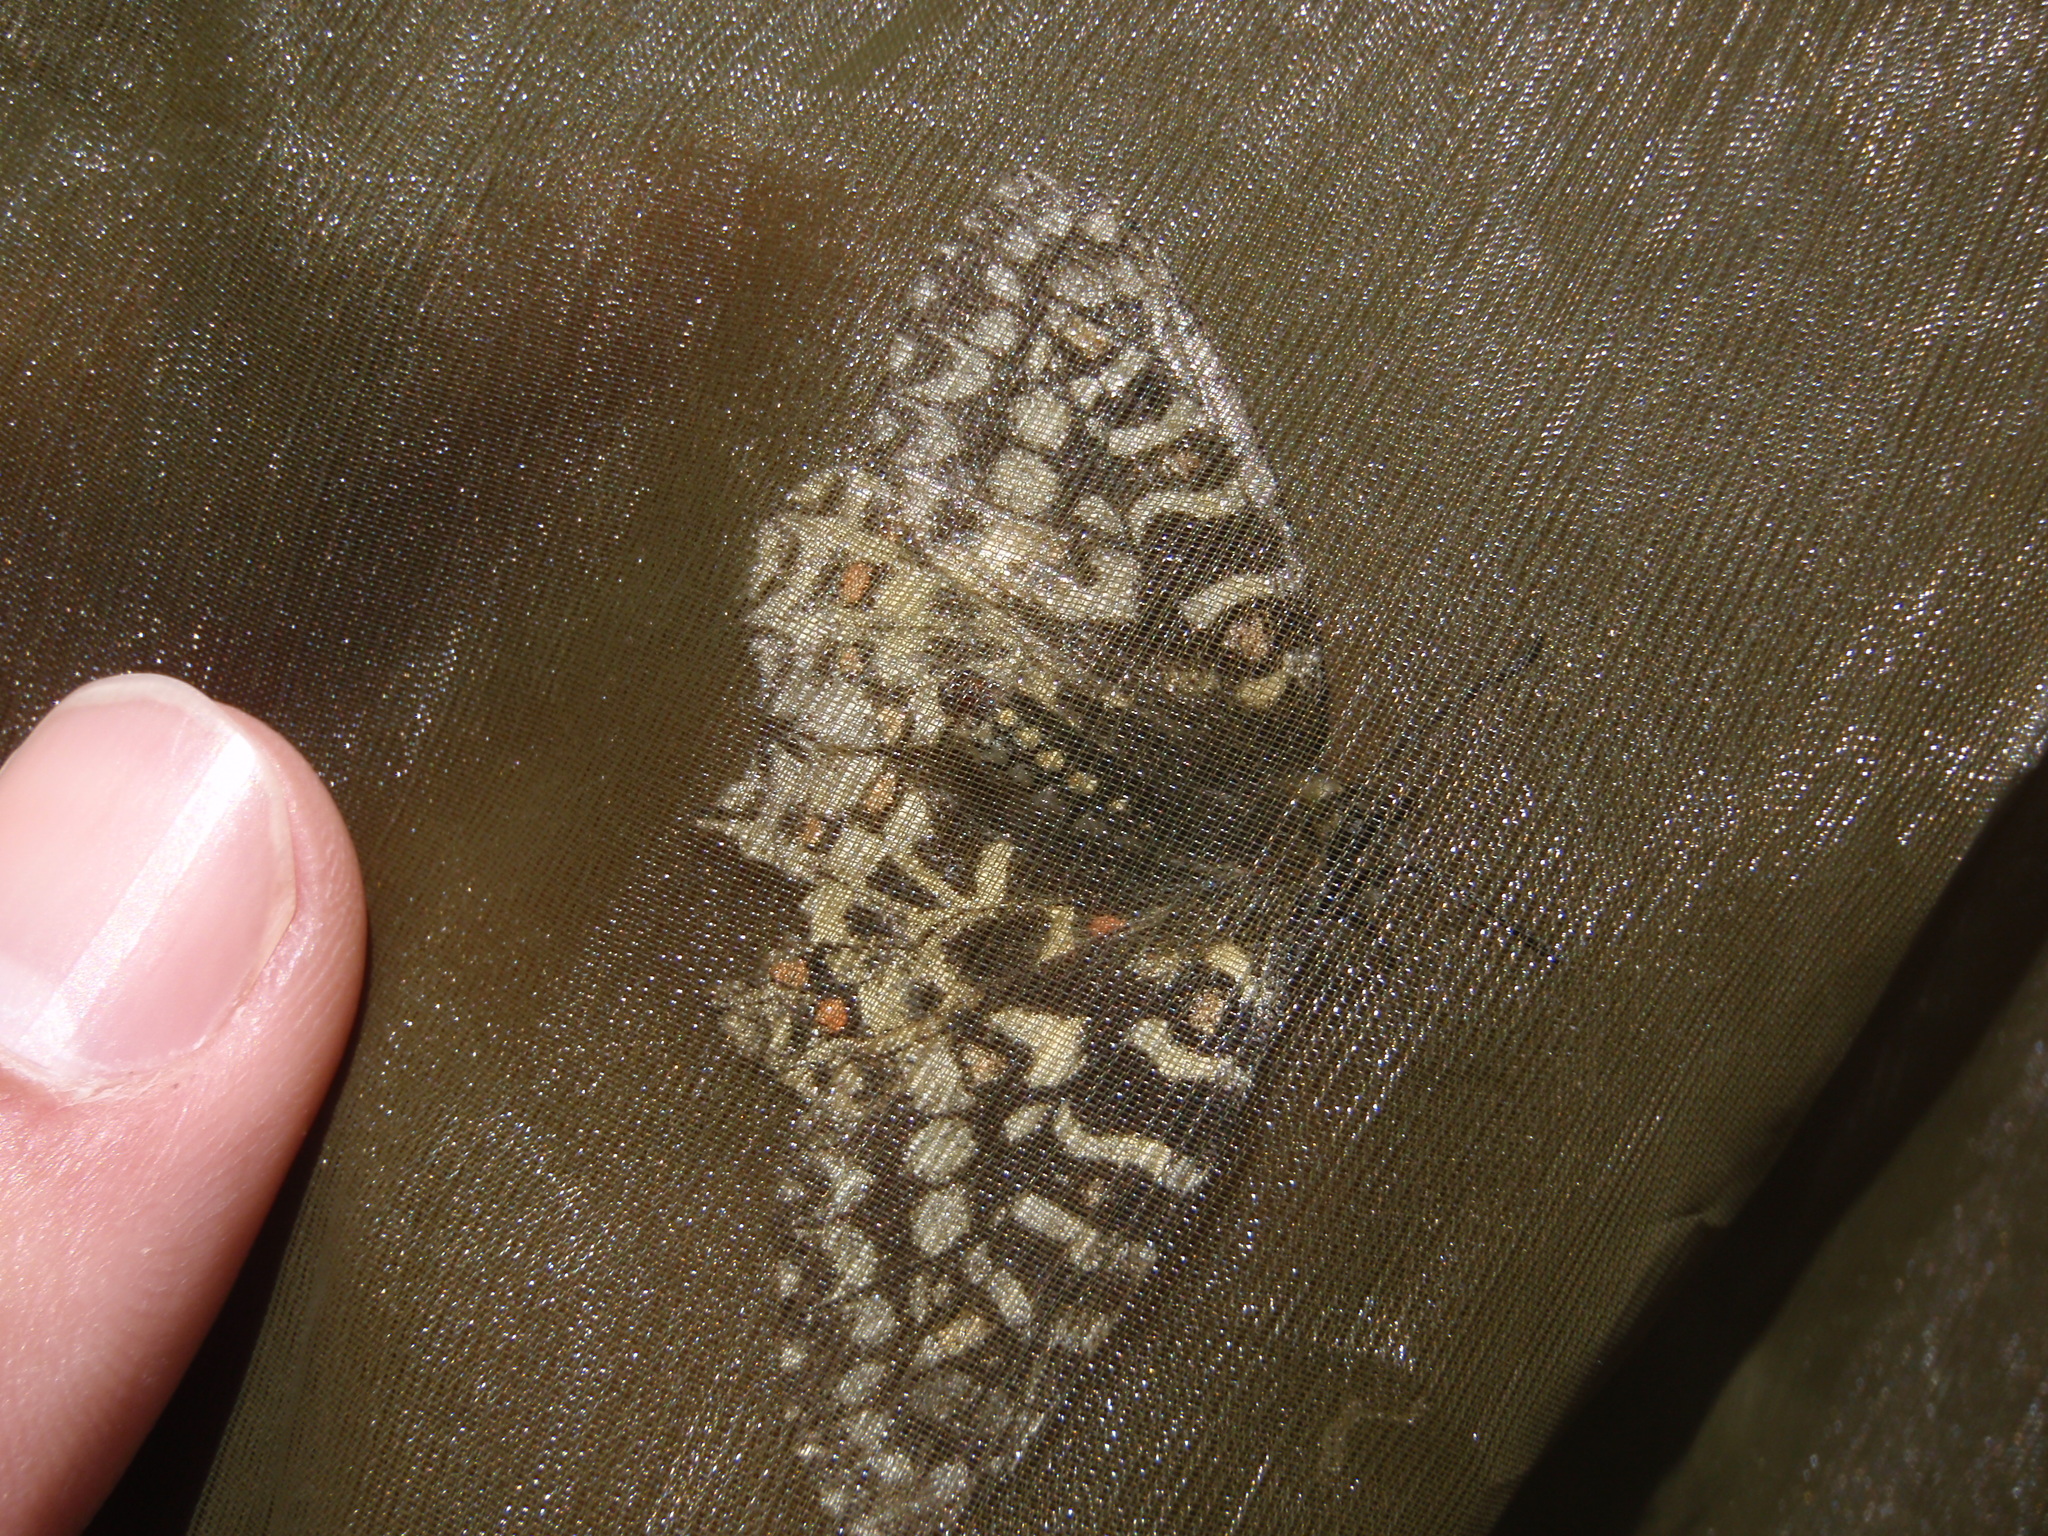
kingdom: Animalia
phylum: Arthropoda
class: Insecta
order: Lepidoptera
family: Papilionidae
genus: Zerynthia
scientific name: Zerynthia rumina
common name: Spanish festoon
